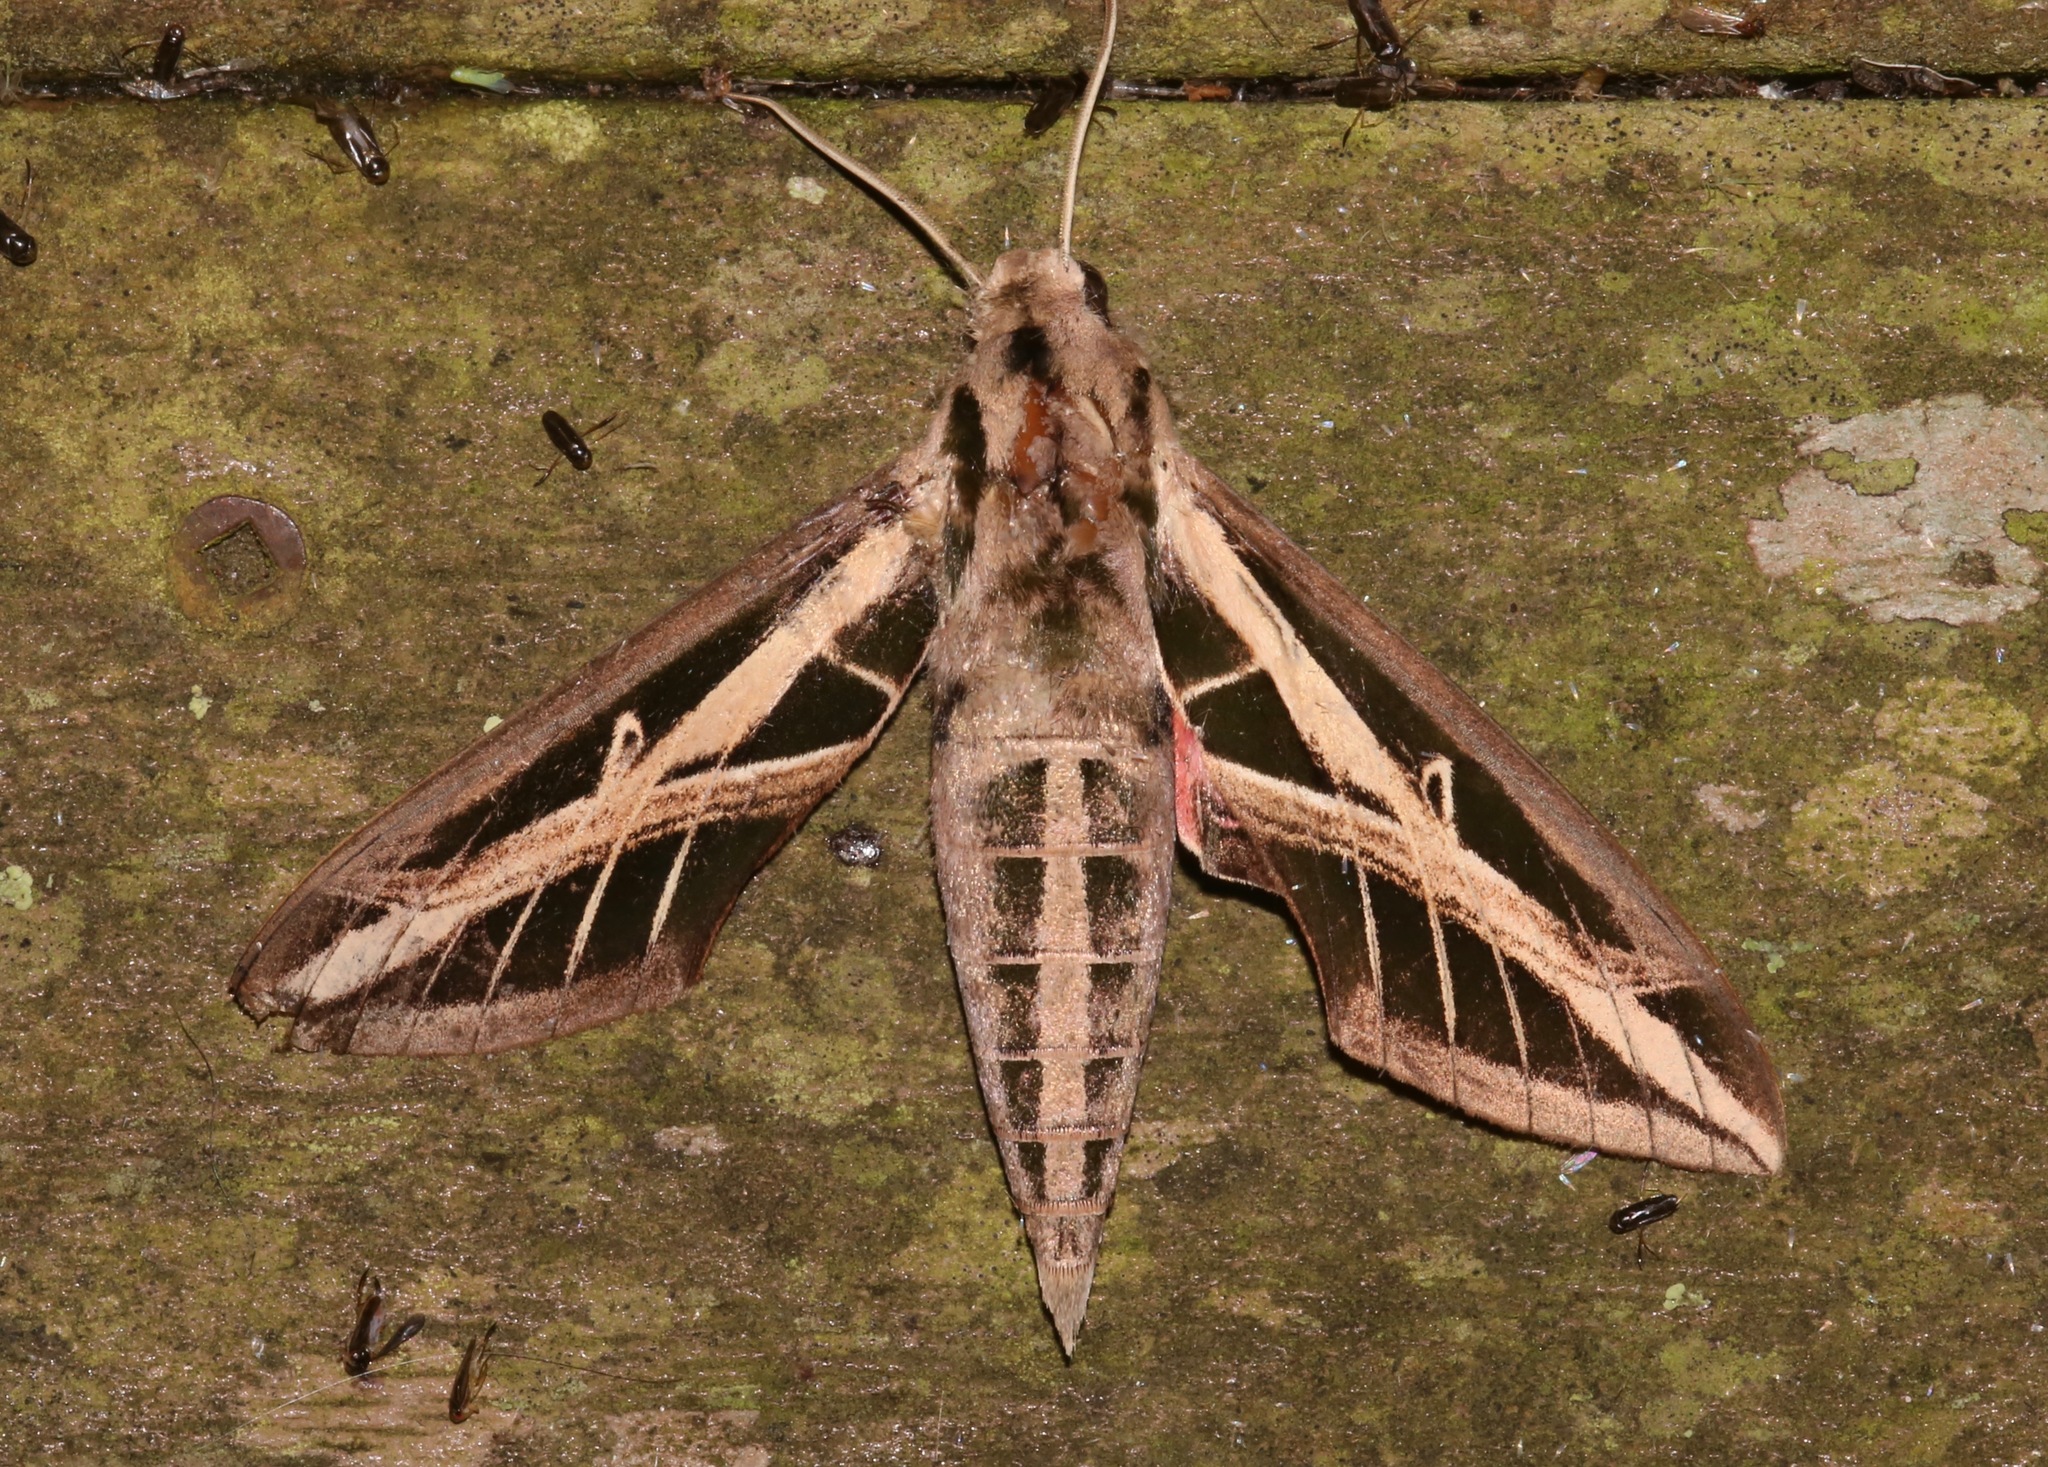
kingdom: Animalia
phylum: Arthropoda
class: Insecta
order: Lepidoptera
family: Sphingidae
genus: Eumorpha
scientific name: Eumorpha fasciatus
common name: Banded sphinx
